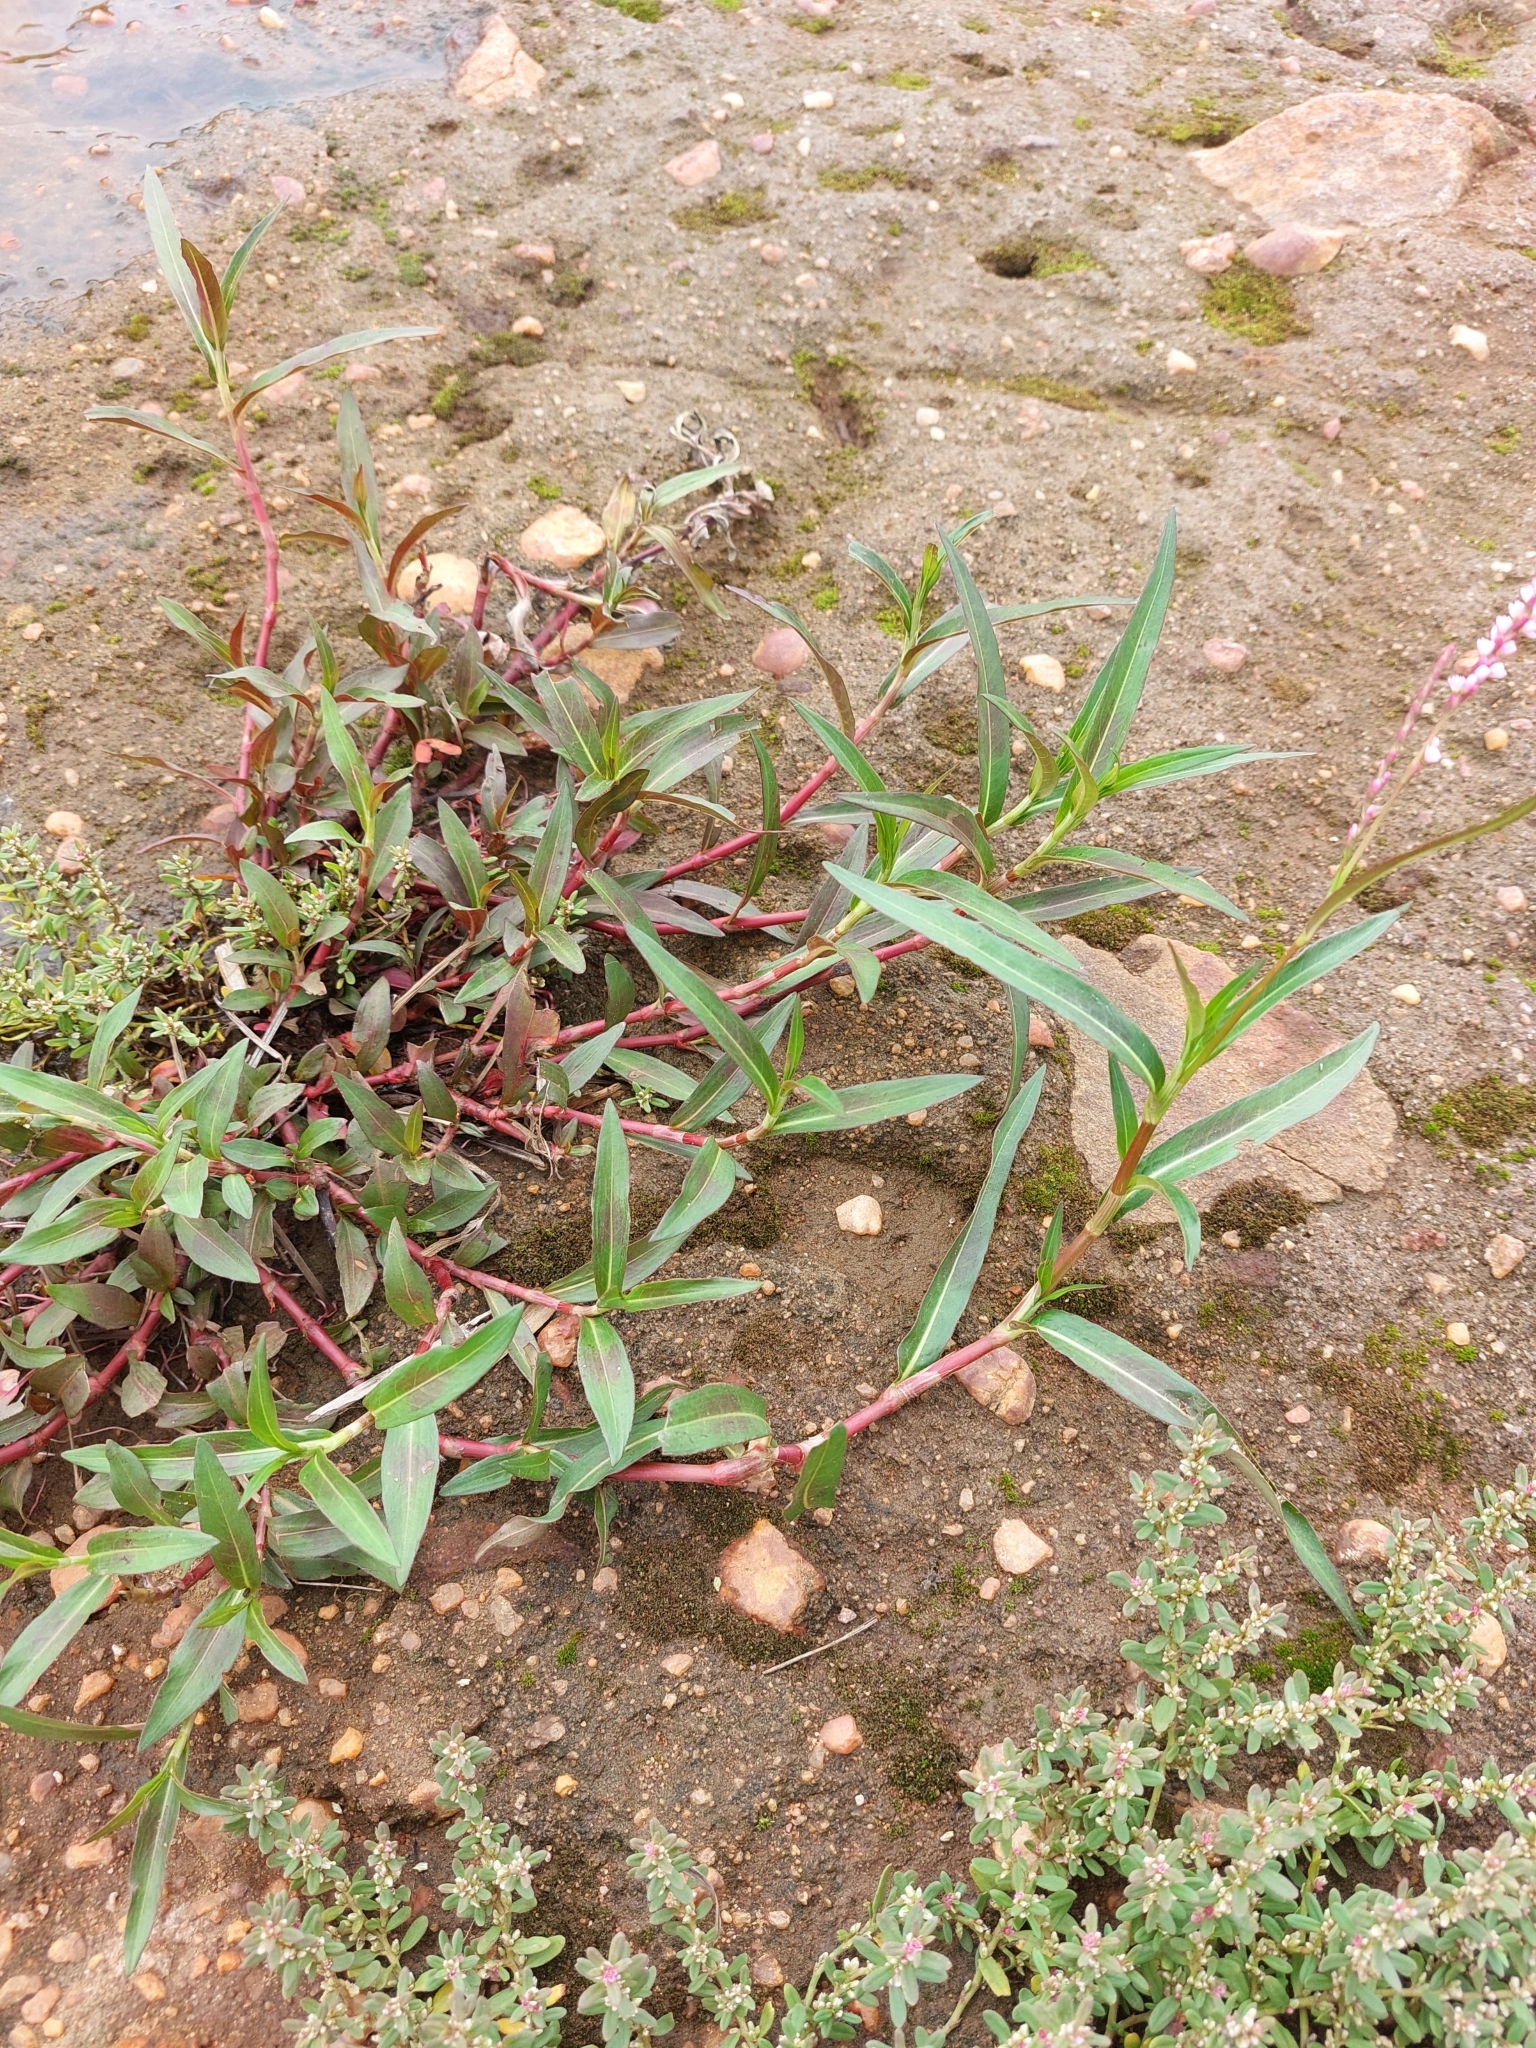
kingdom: Plantae
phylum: Tracheophyta
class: Magnoliopsida
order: Caryophyllales
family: Polygonaceae
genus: Persicaria
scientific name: Persicaria decipiens
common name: Willow-weed
